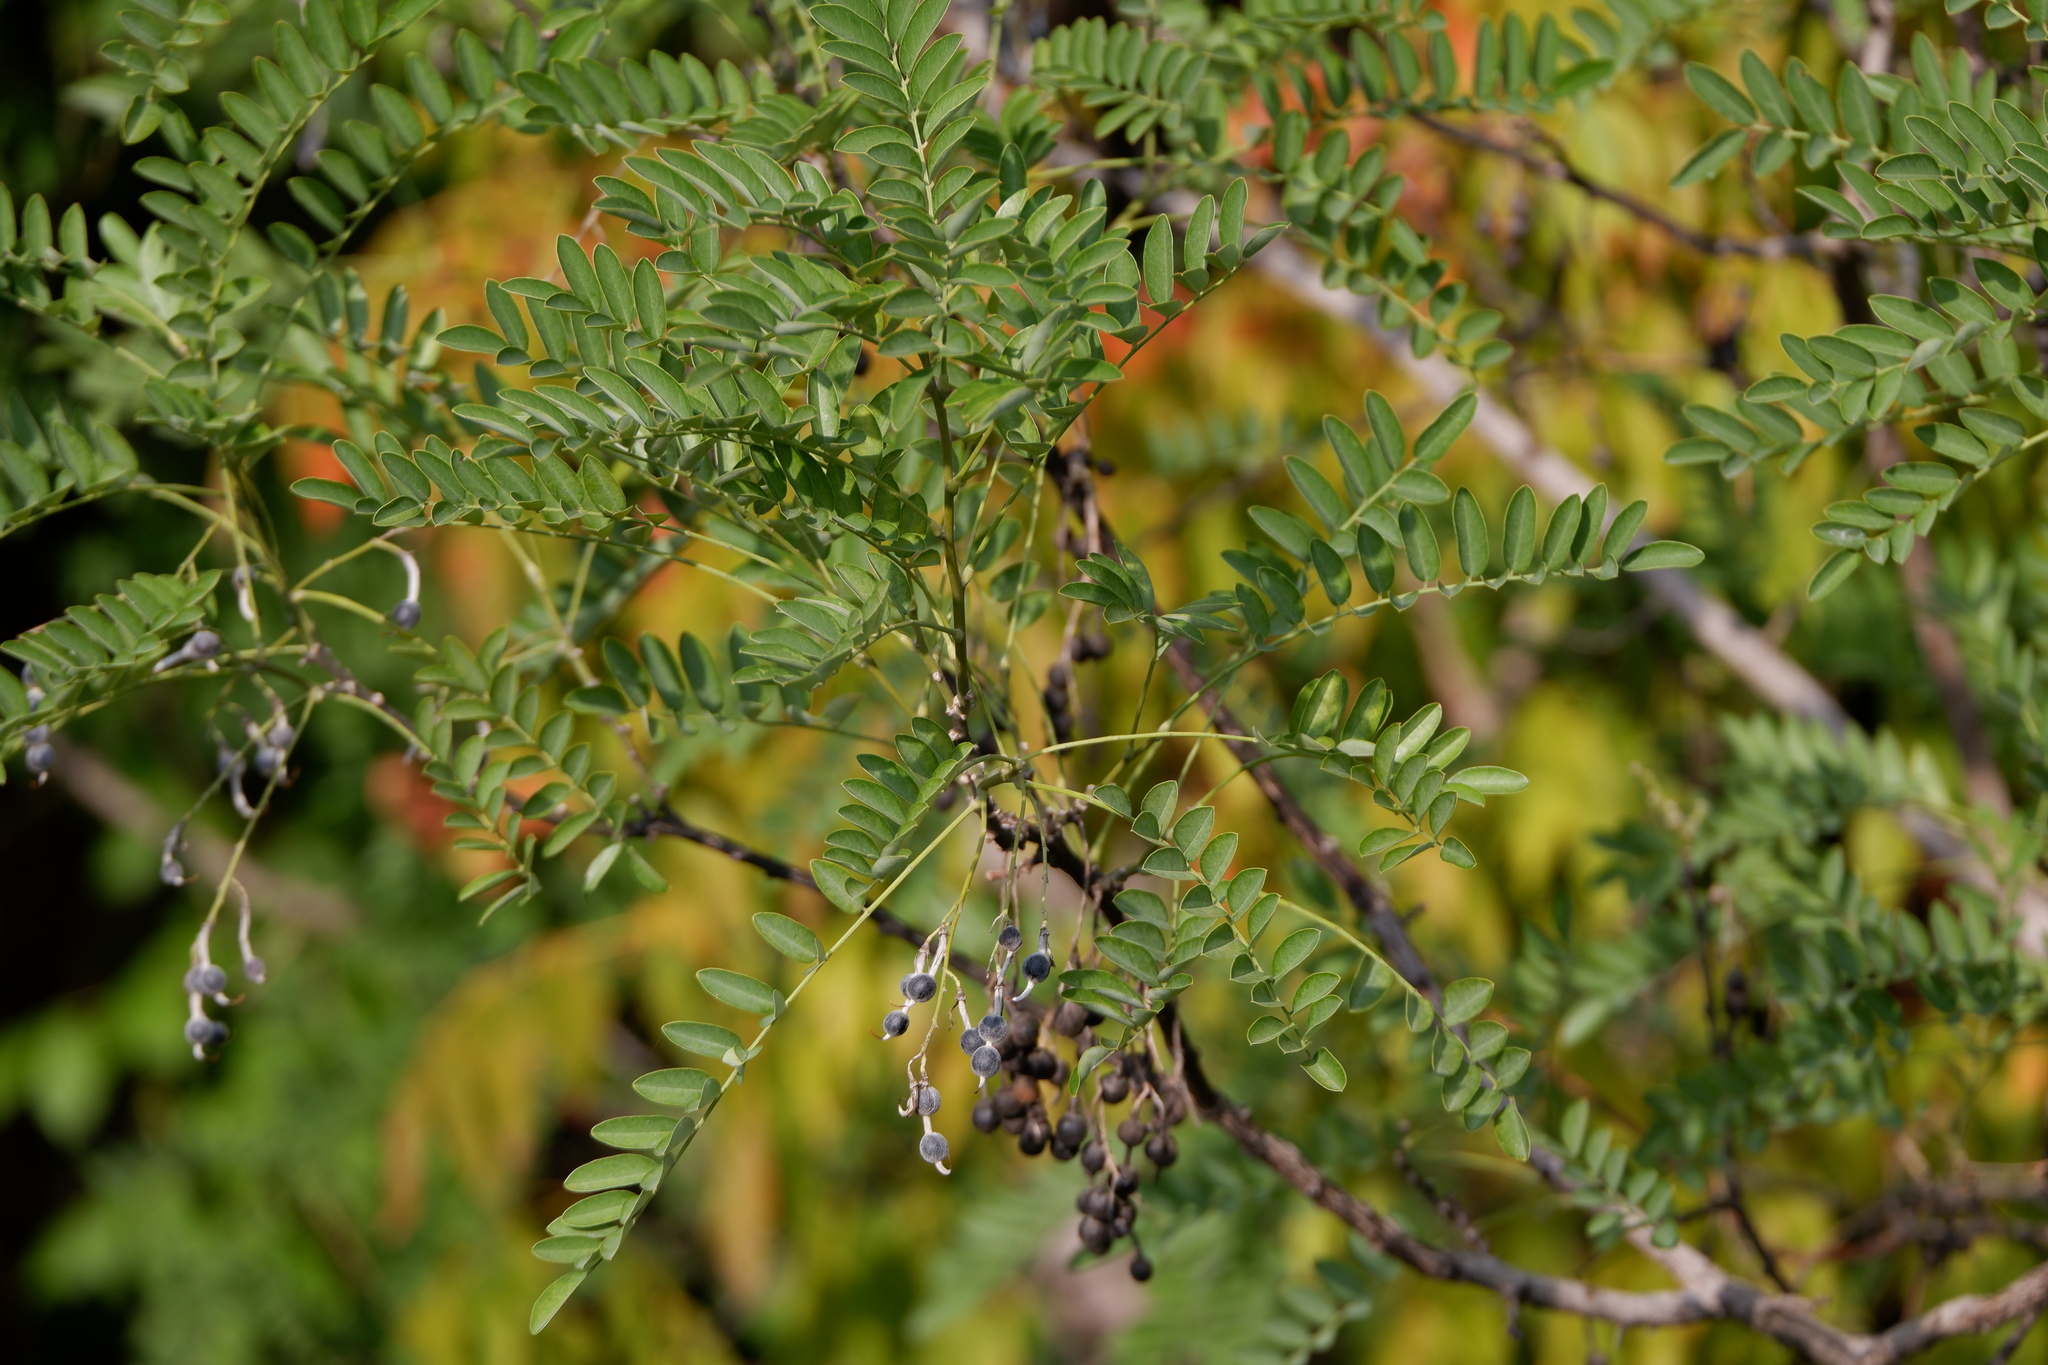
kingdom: Plantae
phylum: Tracheophyta
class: Magnoliopsida
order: Fabales
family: Fabaceae
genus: Styphnolobium
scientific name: Styphnolobium affine
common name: Texas sophora
